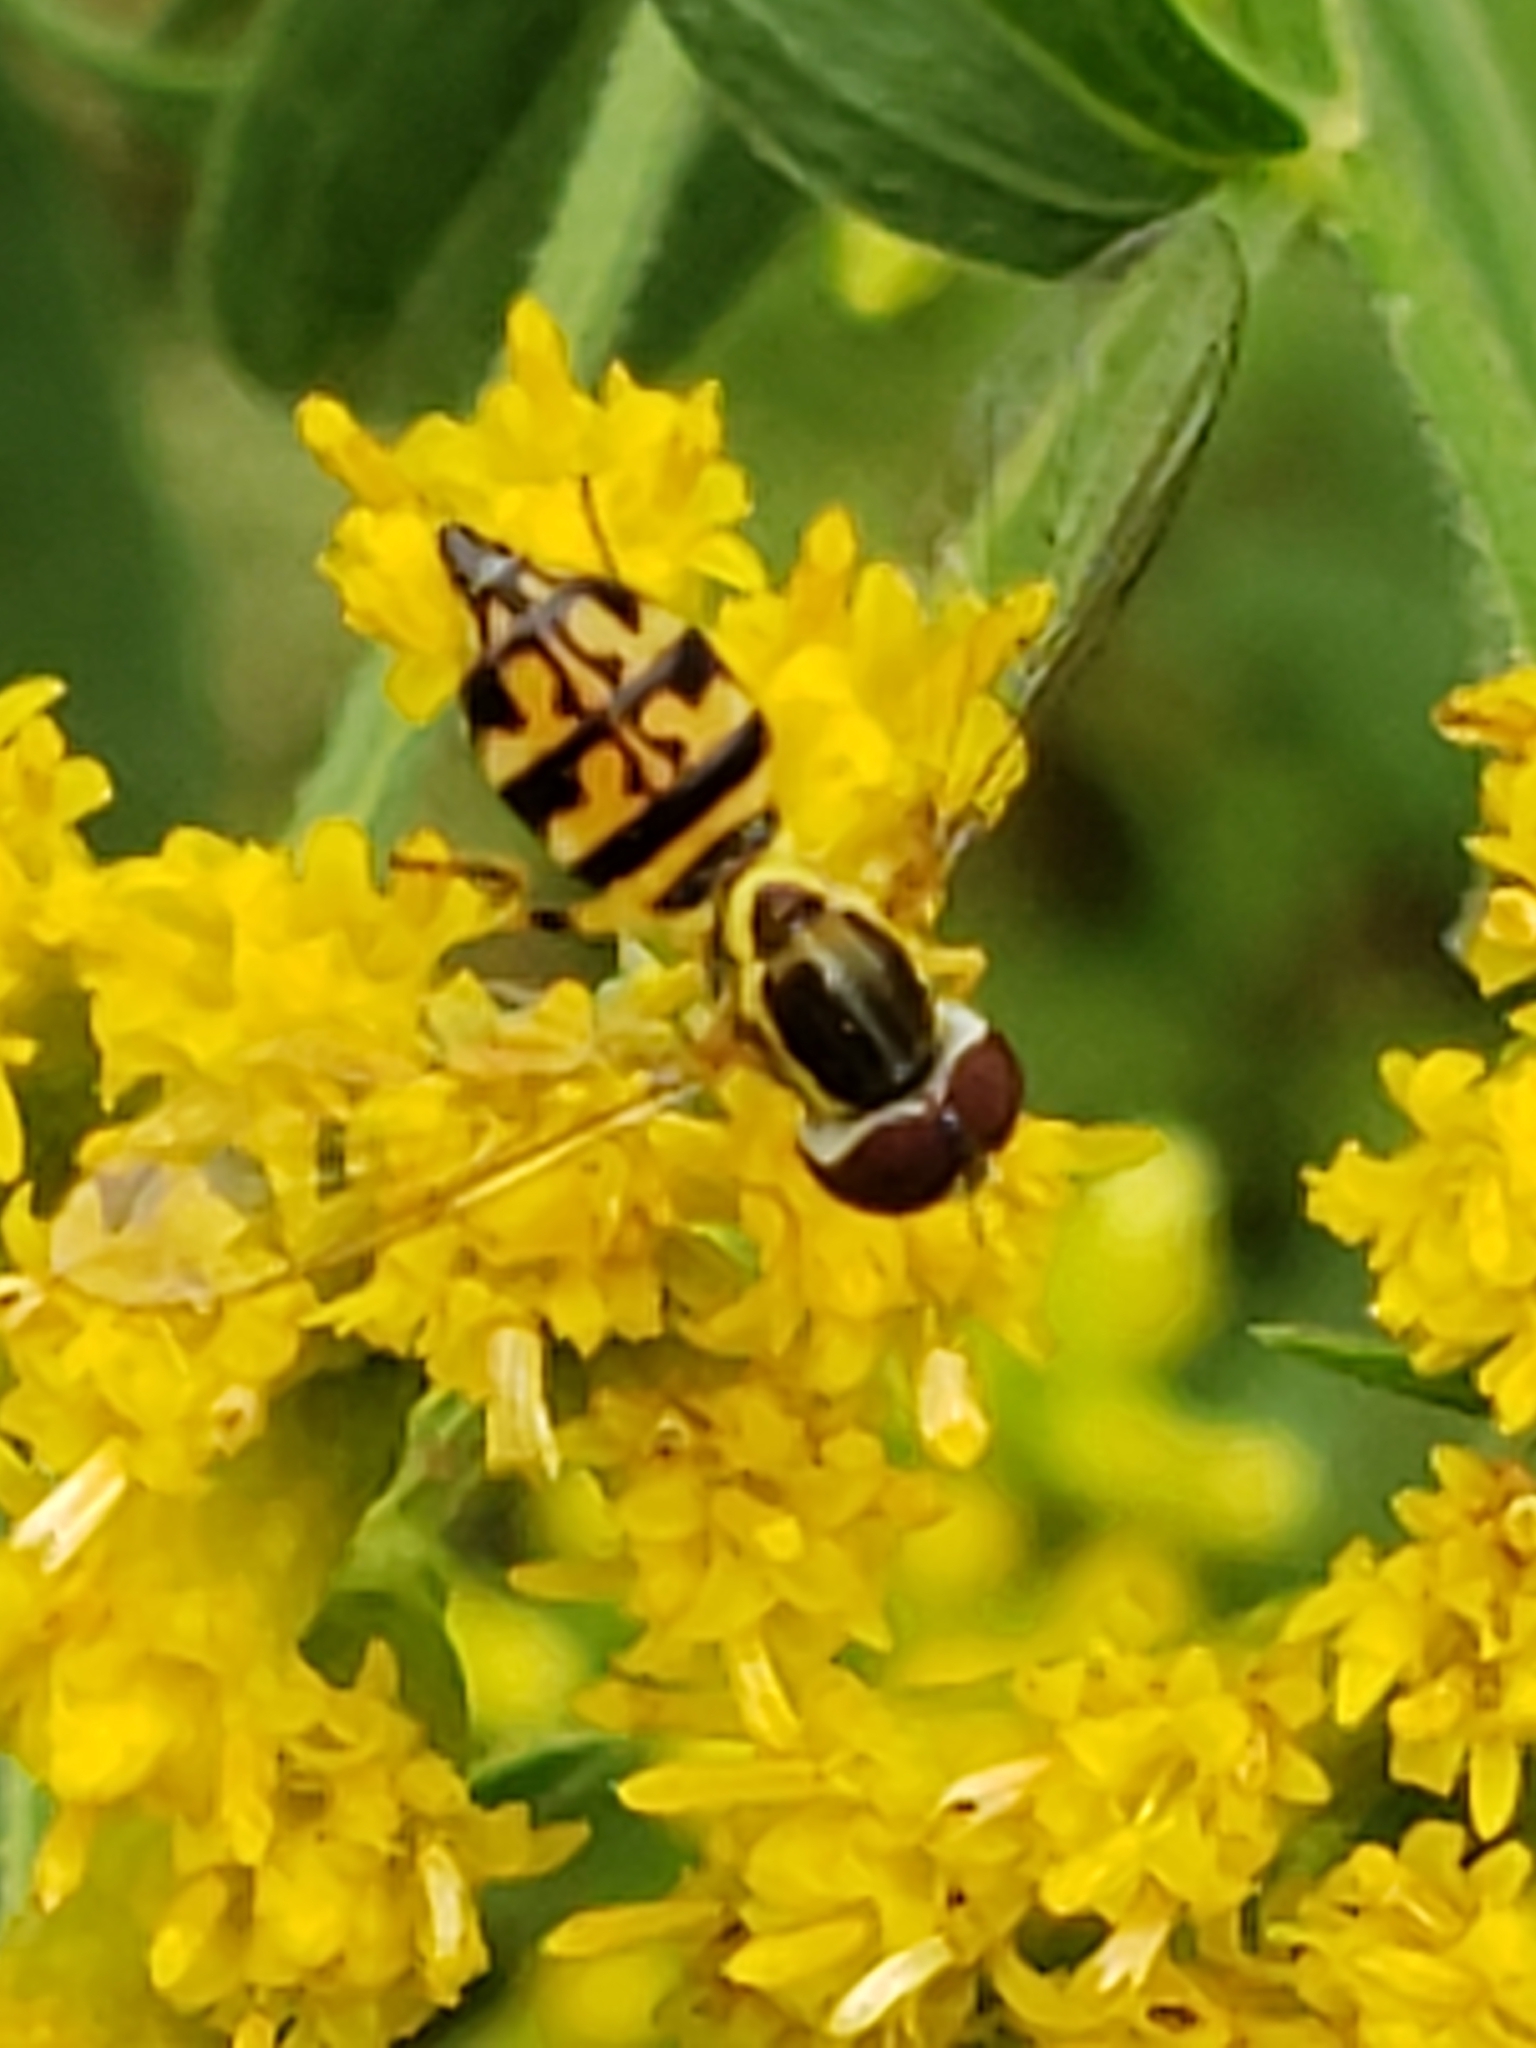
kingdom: Animalia
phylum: Arthropoda
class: Insecta
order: Diptera
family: Syrphidae
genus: Toxomerus
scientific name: Toxomerus geminatus
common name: Eastern calligrapher
